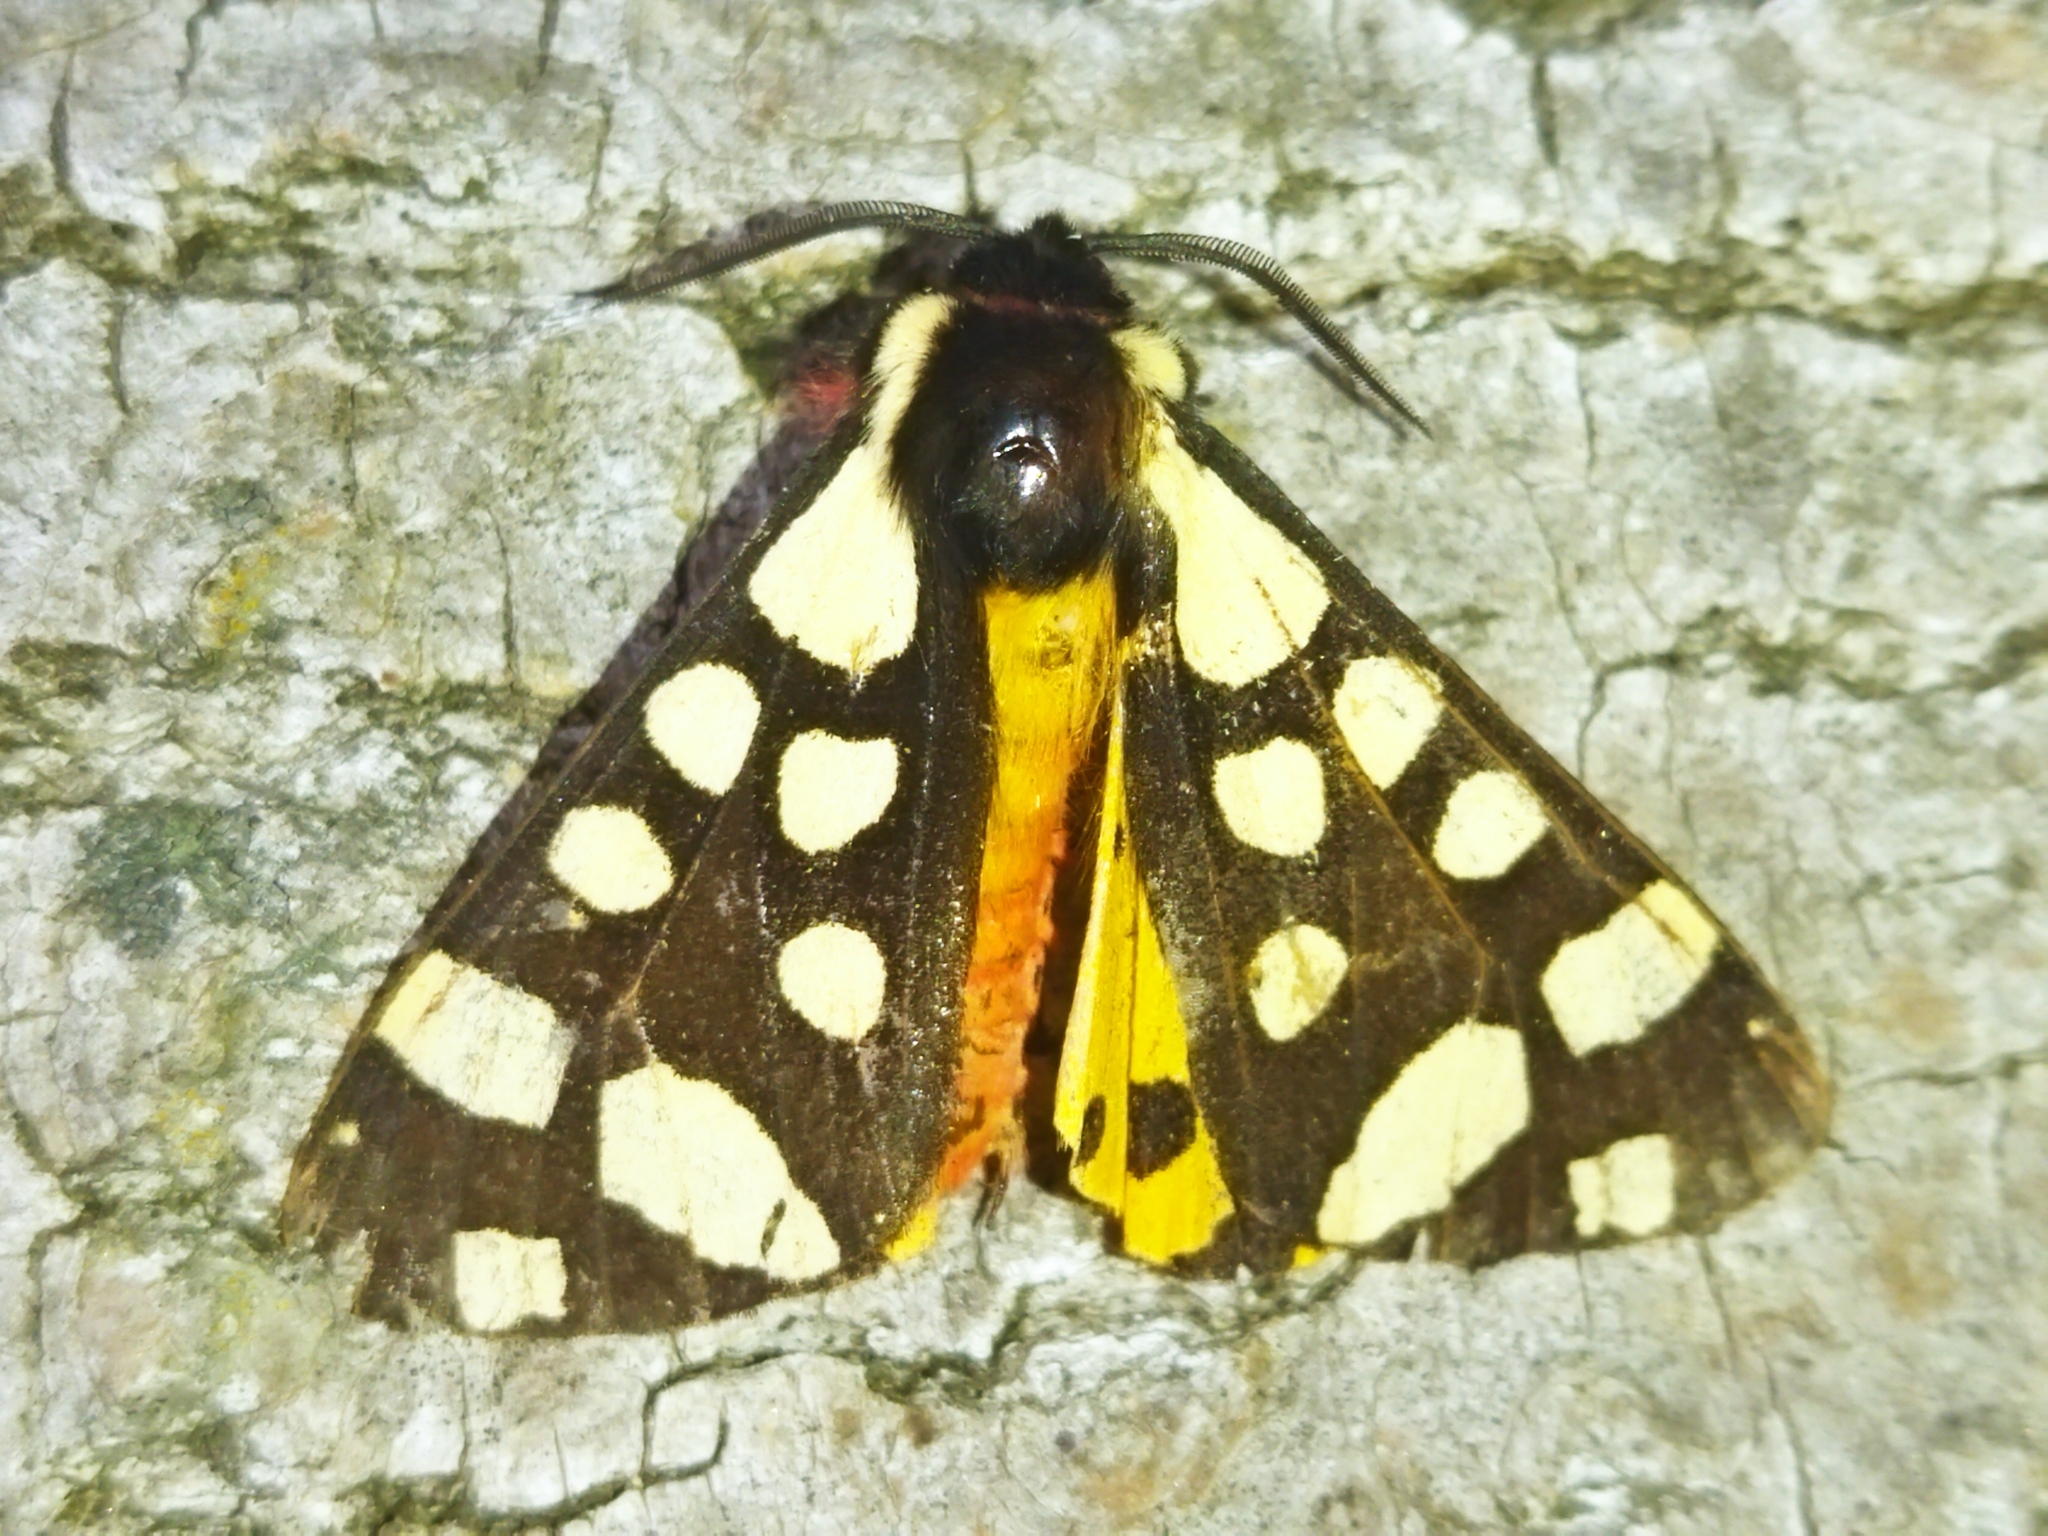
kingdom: Animalia
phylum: Arthropoda
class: Insecta
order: Lepidoptera
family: Erebidae
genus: Epicallia
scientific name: Epicallia villica
